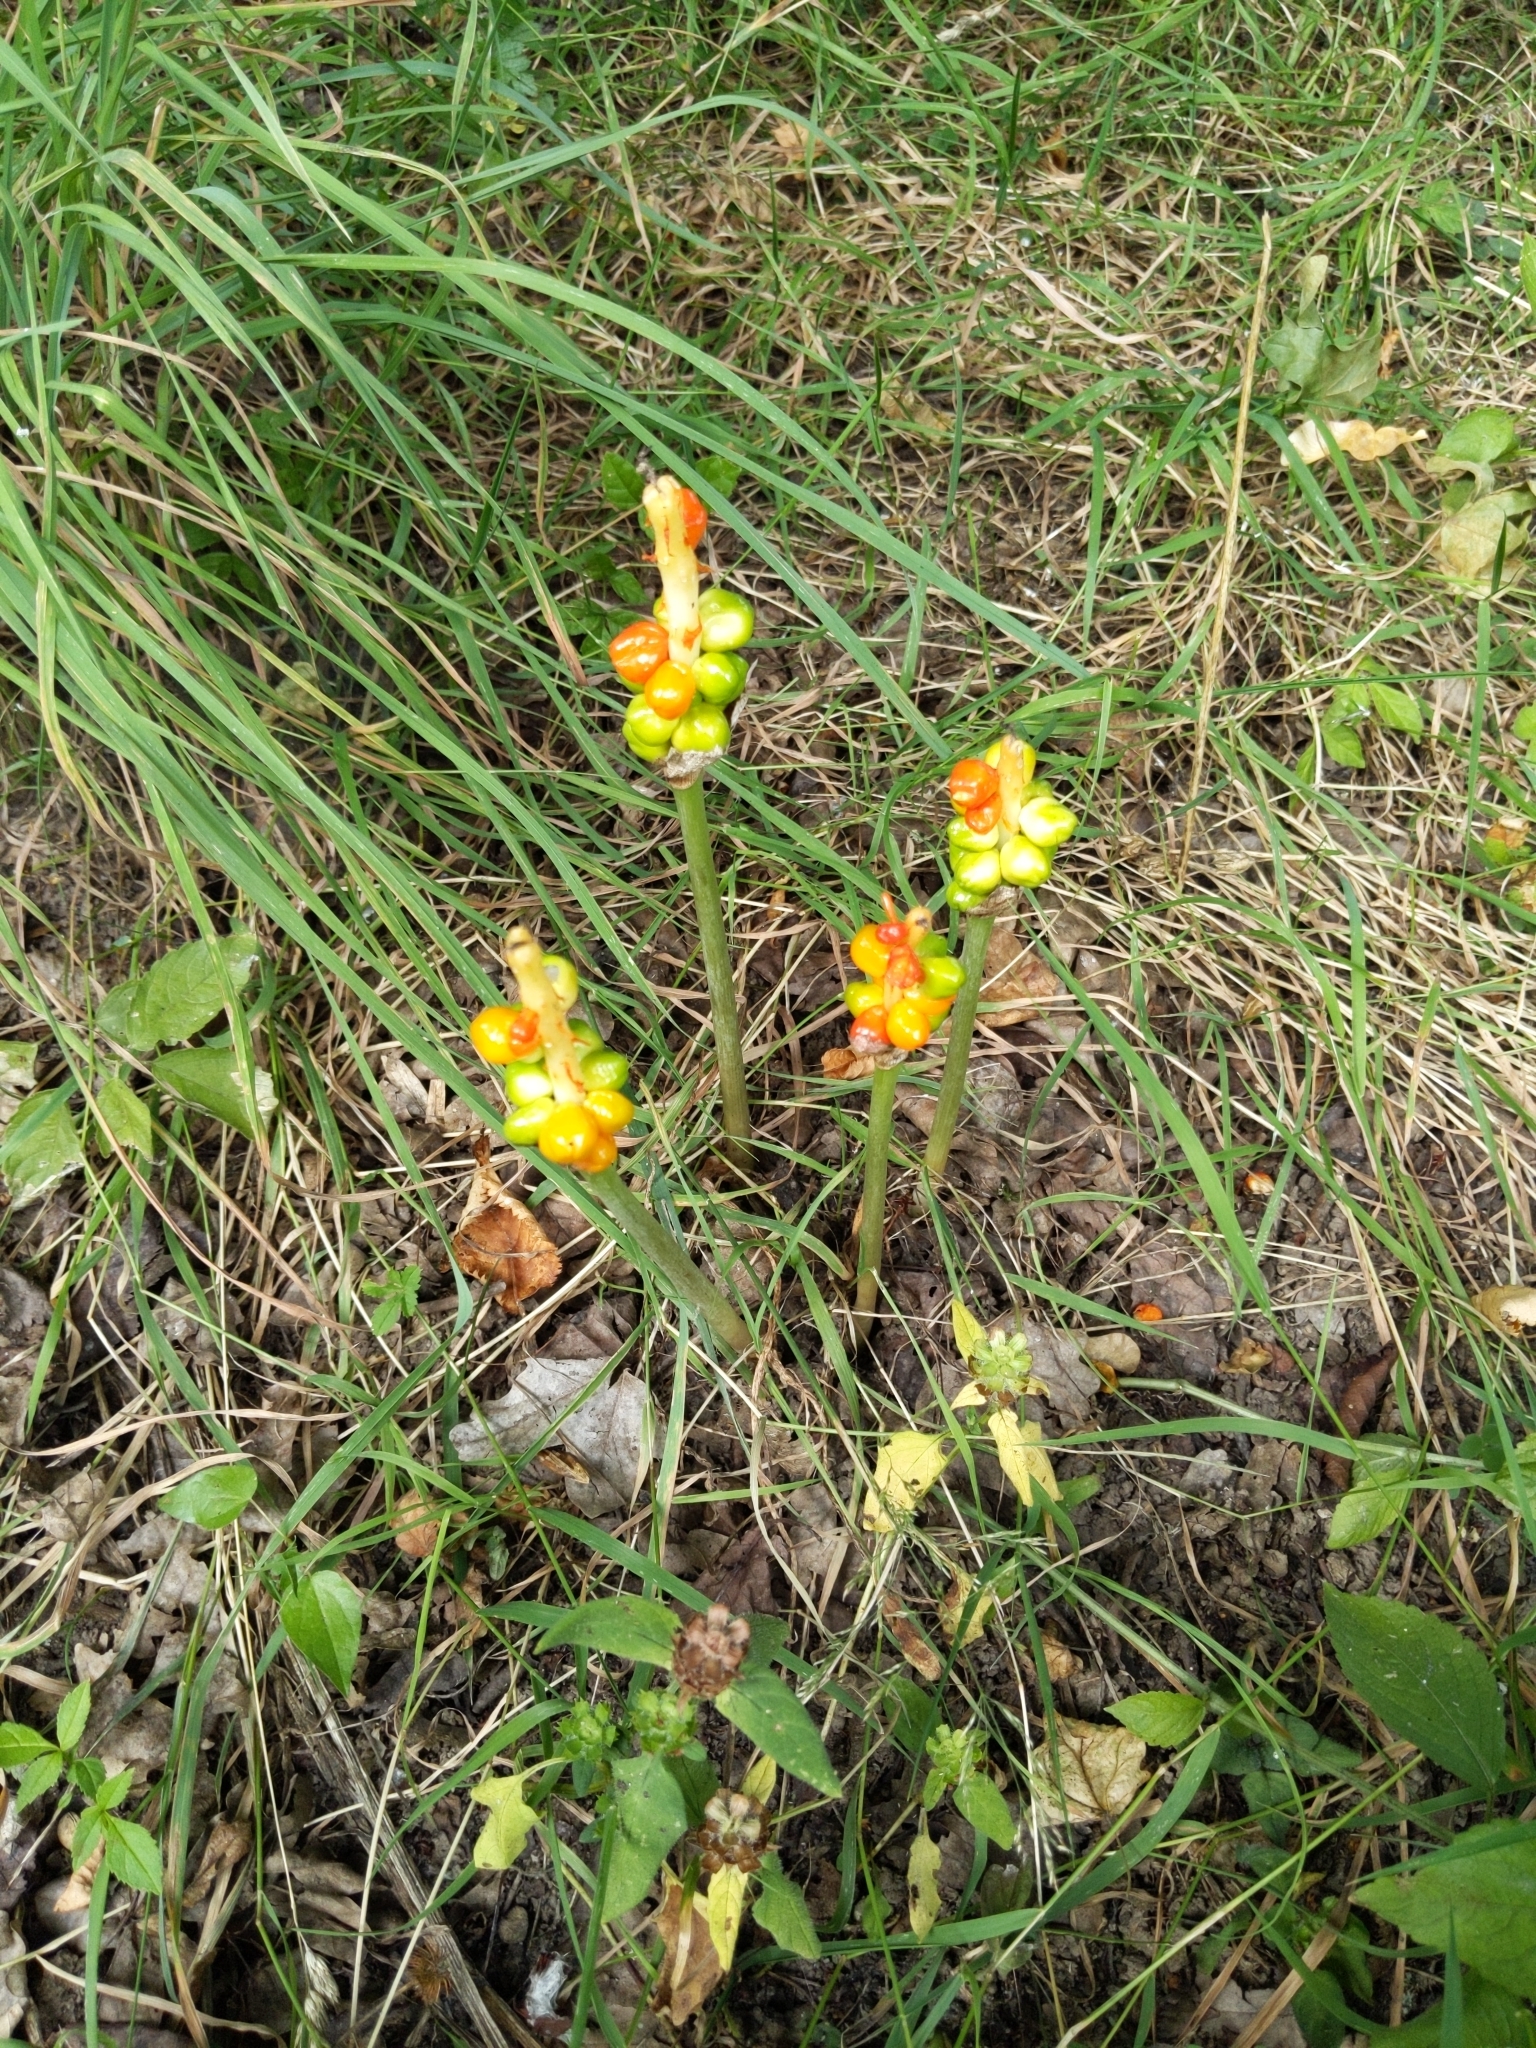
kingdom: Plantae
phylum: Tracheophyta
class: Liliopsida
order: Alismatales
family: Araceae
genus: Arum
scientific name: Arum maculatum
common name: Lords-and-ladies
